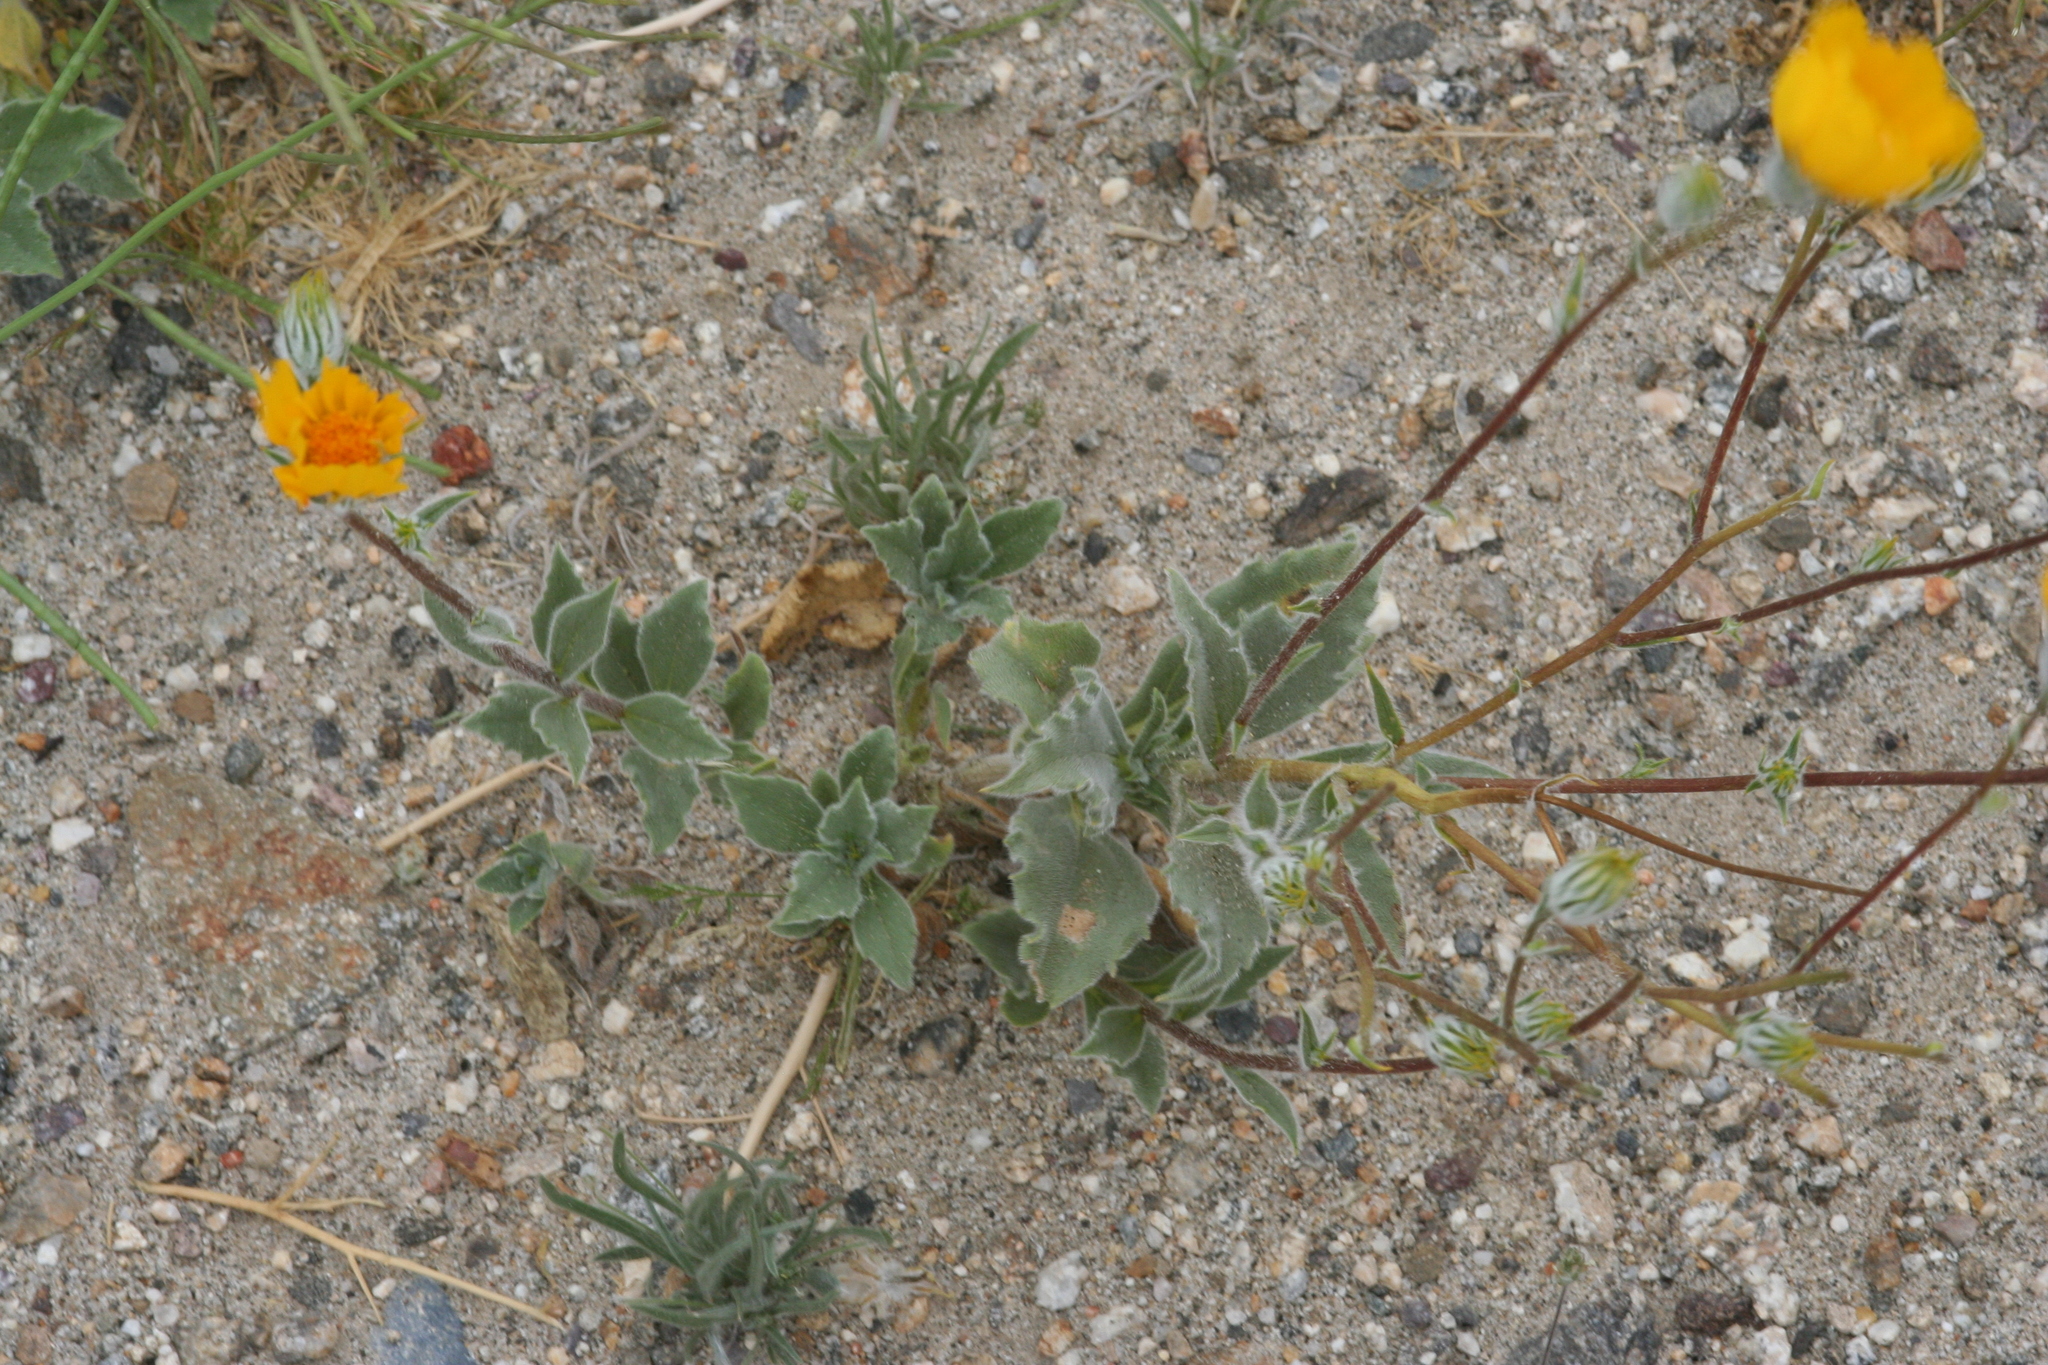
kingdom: Plantae
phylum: Tracheophyta
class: Magnoliopsida
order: Asterales
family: Asteraceae
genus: Geraea
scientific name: Geraea canescens
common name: Desert-gold
